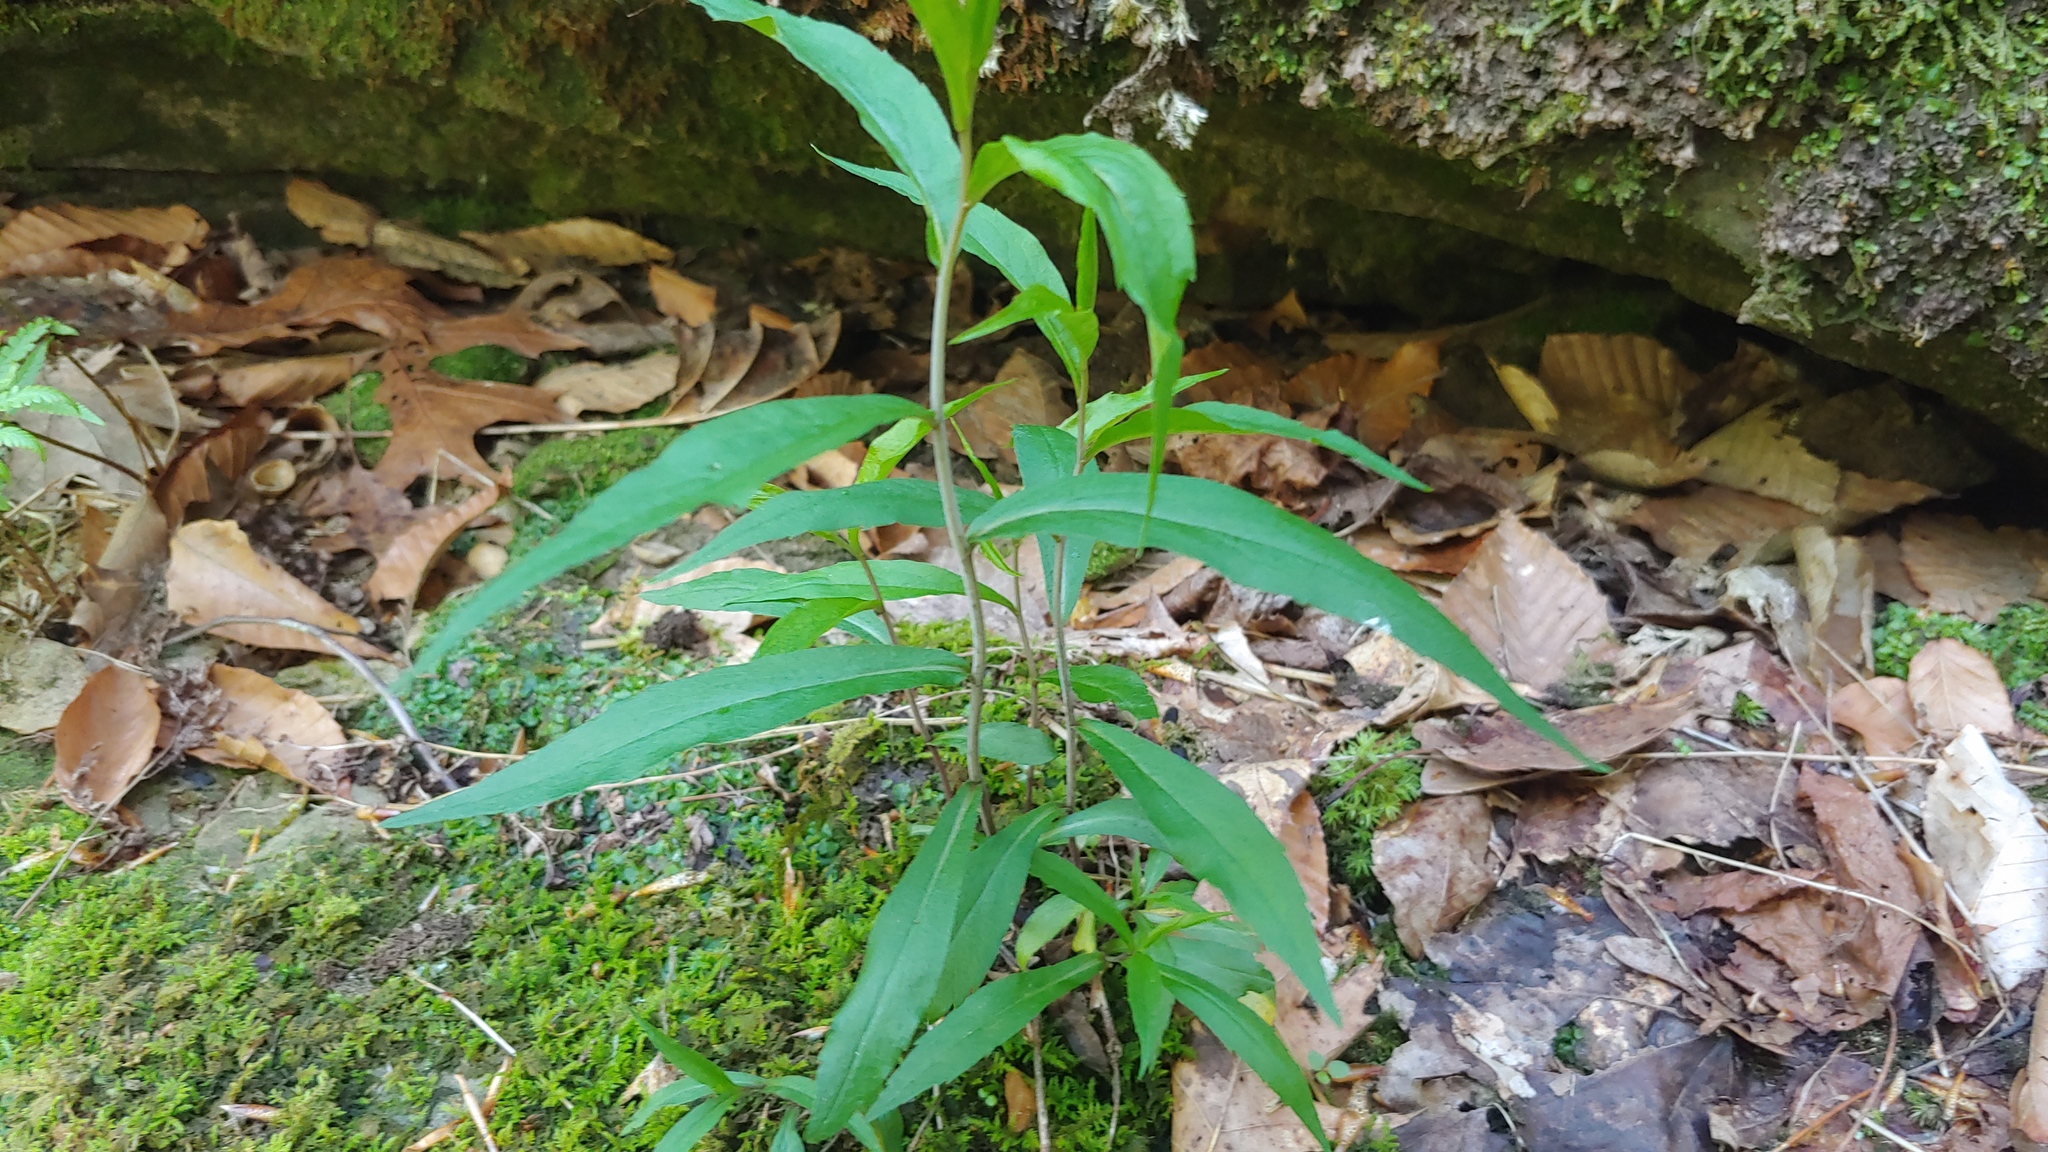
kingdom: Plantae
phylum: Tracheophyta
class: Magnoliopsida
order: Asterales
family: Asteraceae
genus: Solidago
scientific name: Solidago caesia
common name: Woodland goldenrod
